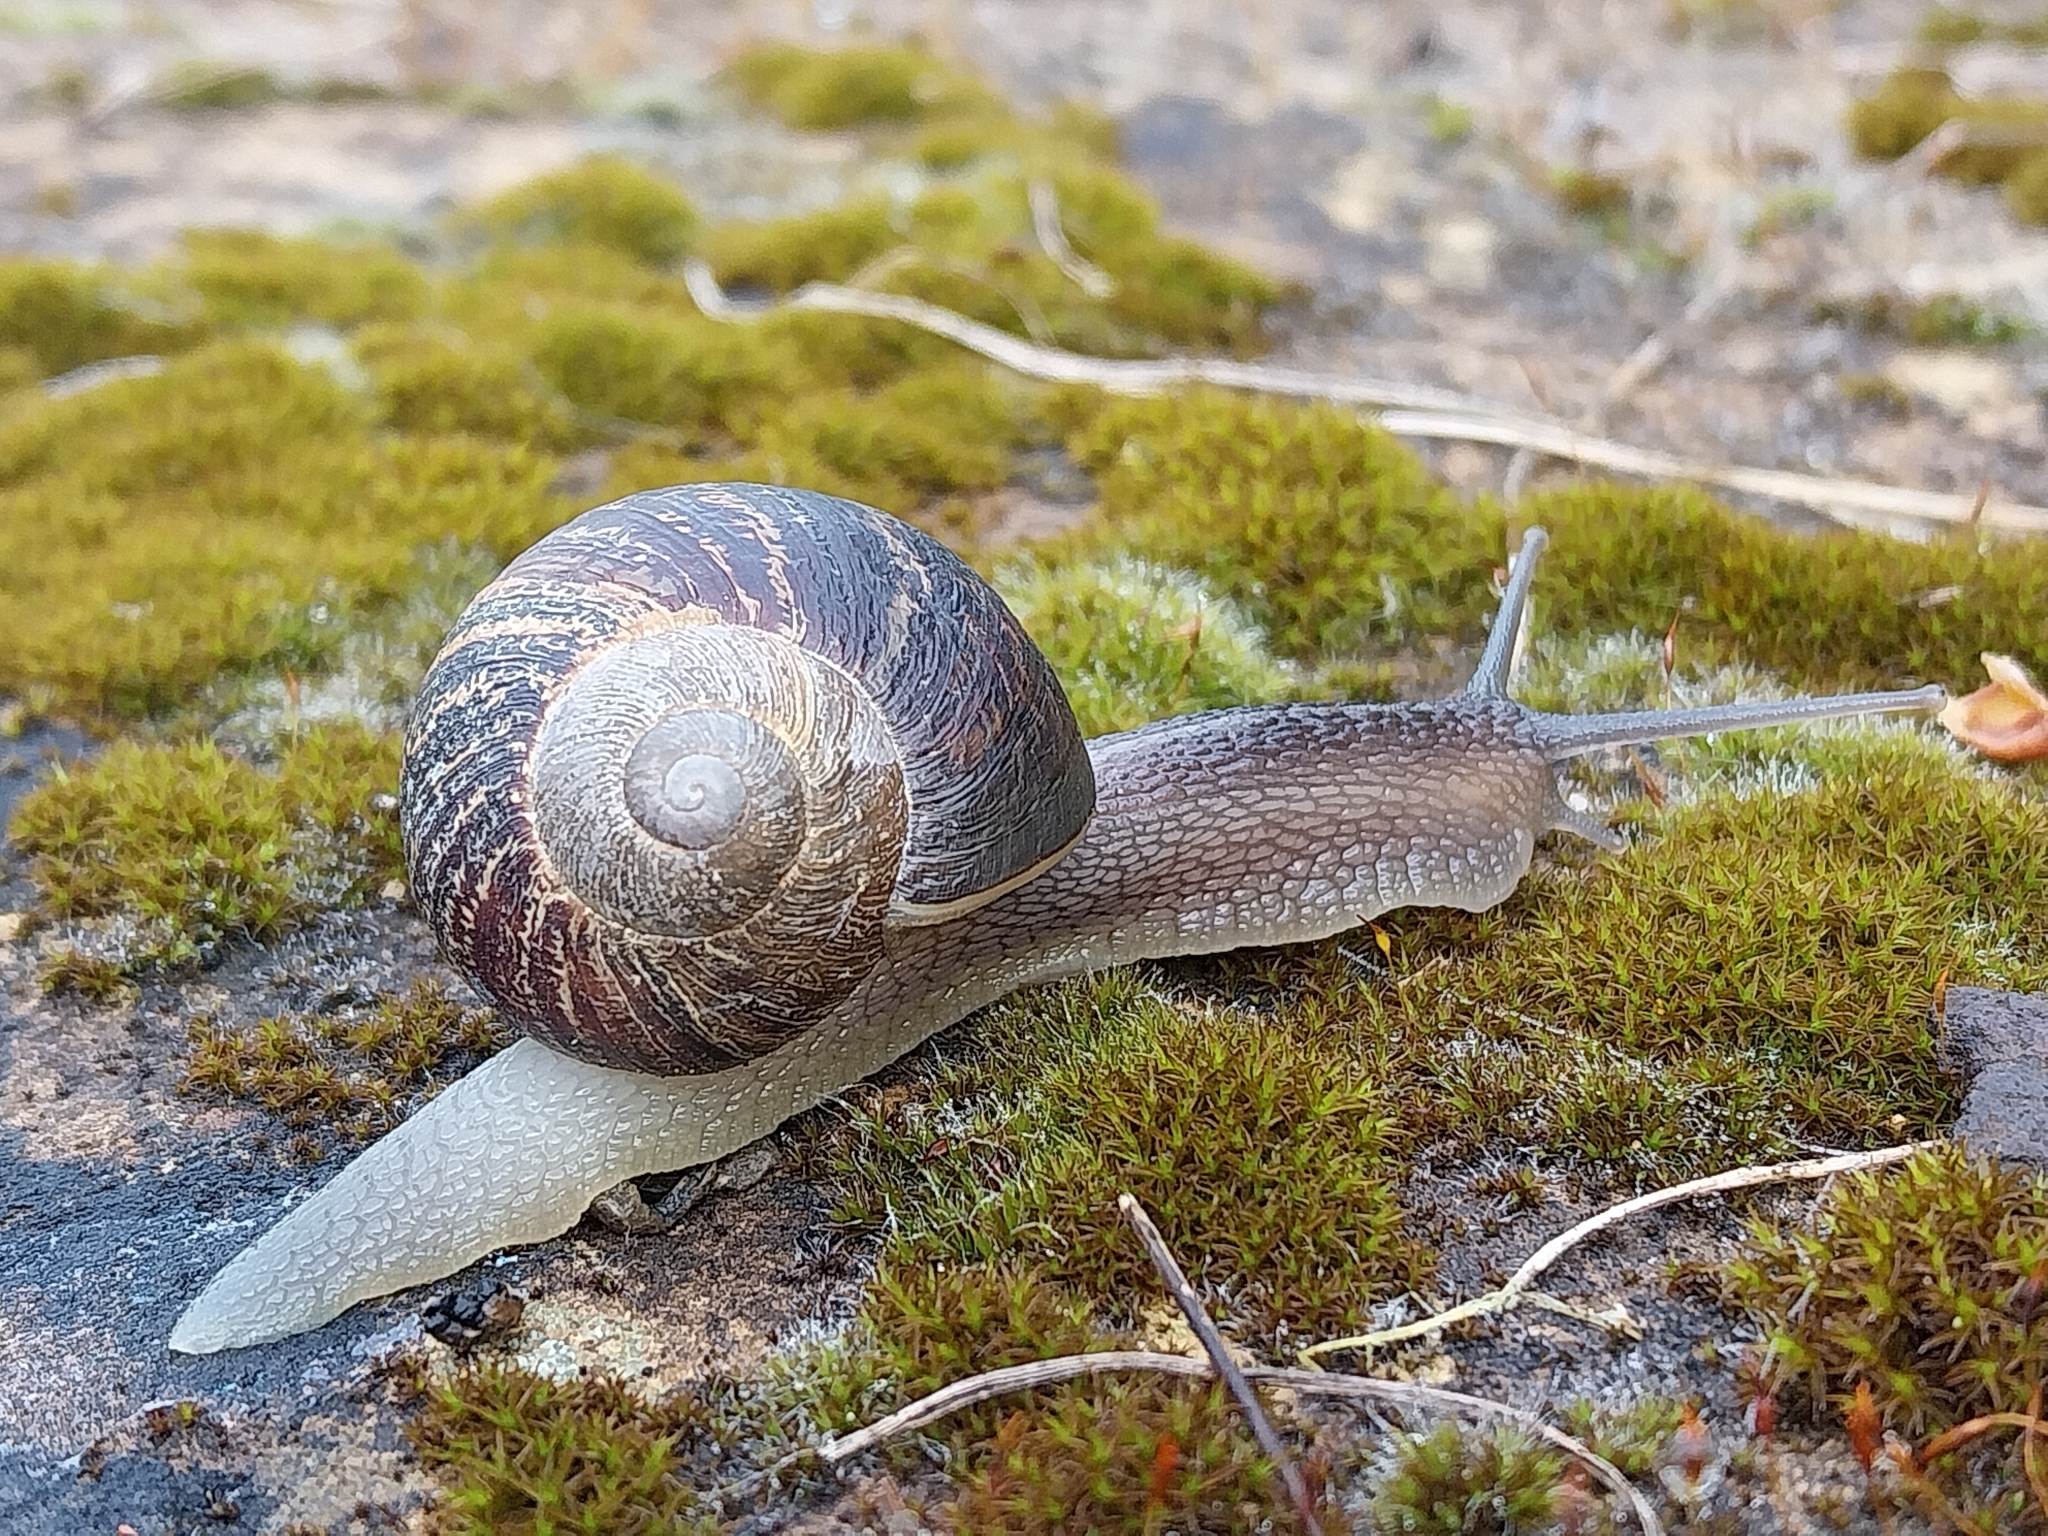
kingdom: Animalia
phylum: Mollusca
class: Gastropoda
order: Stylommatophora
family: Helicidae
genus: Cornu
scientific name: Cornu aspersum
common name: Brown garden snail
